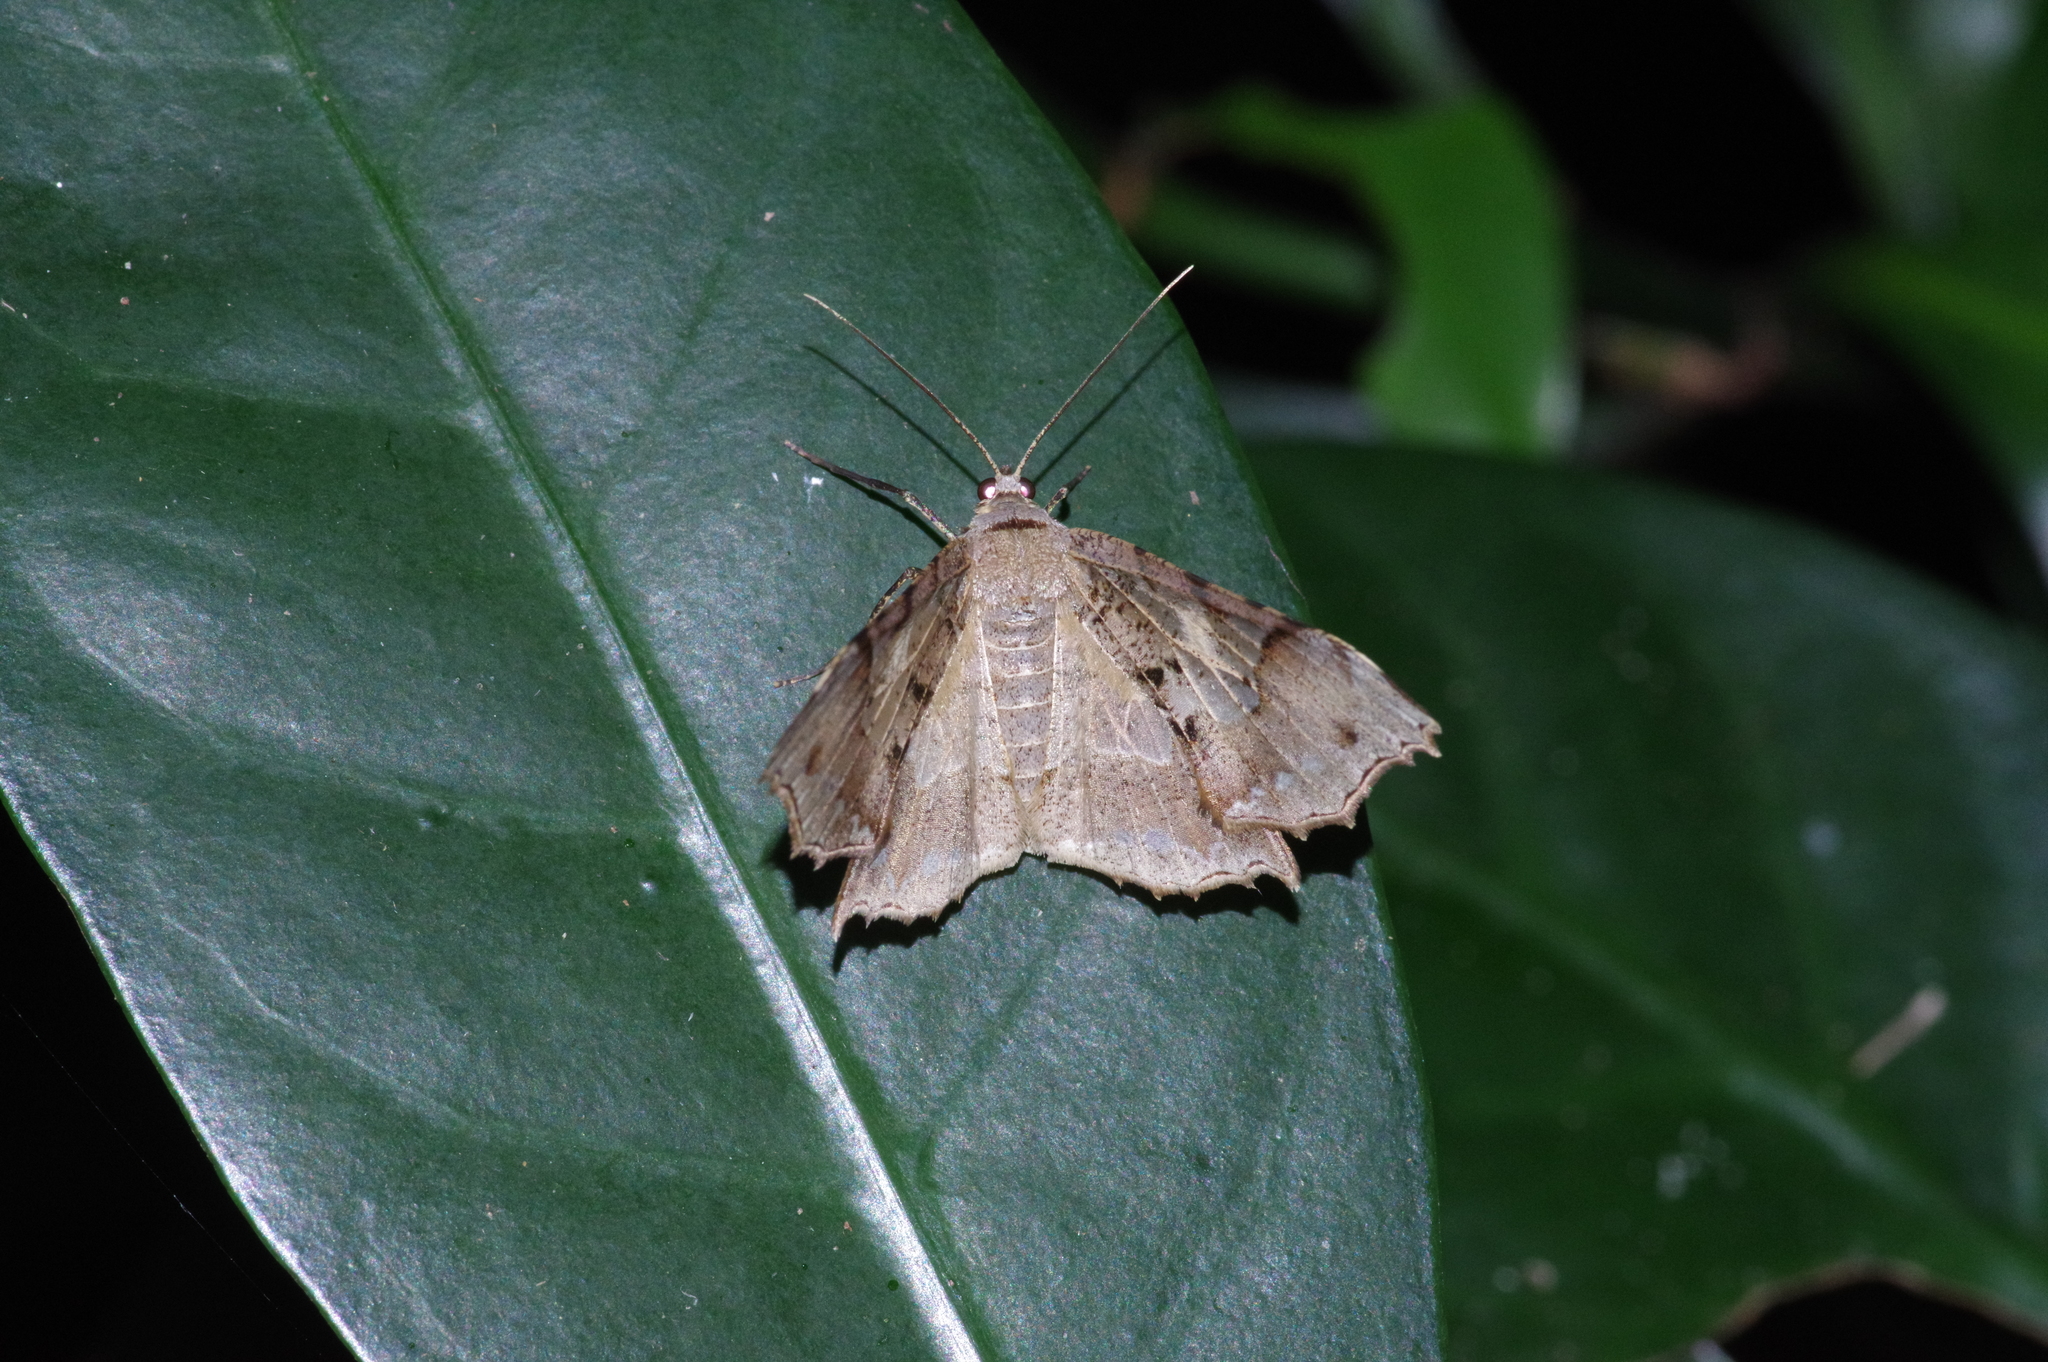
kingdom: Animalia
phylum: Arthropoda
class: Insecta
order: Lepidoptera
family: Geometridae
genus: Krananda
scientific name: Krananda semihyalina
